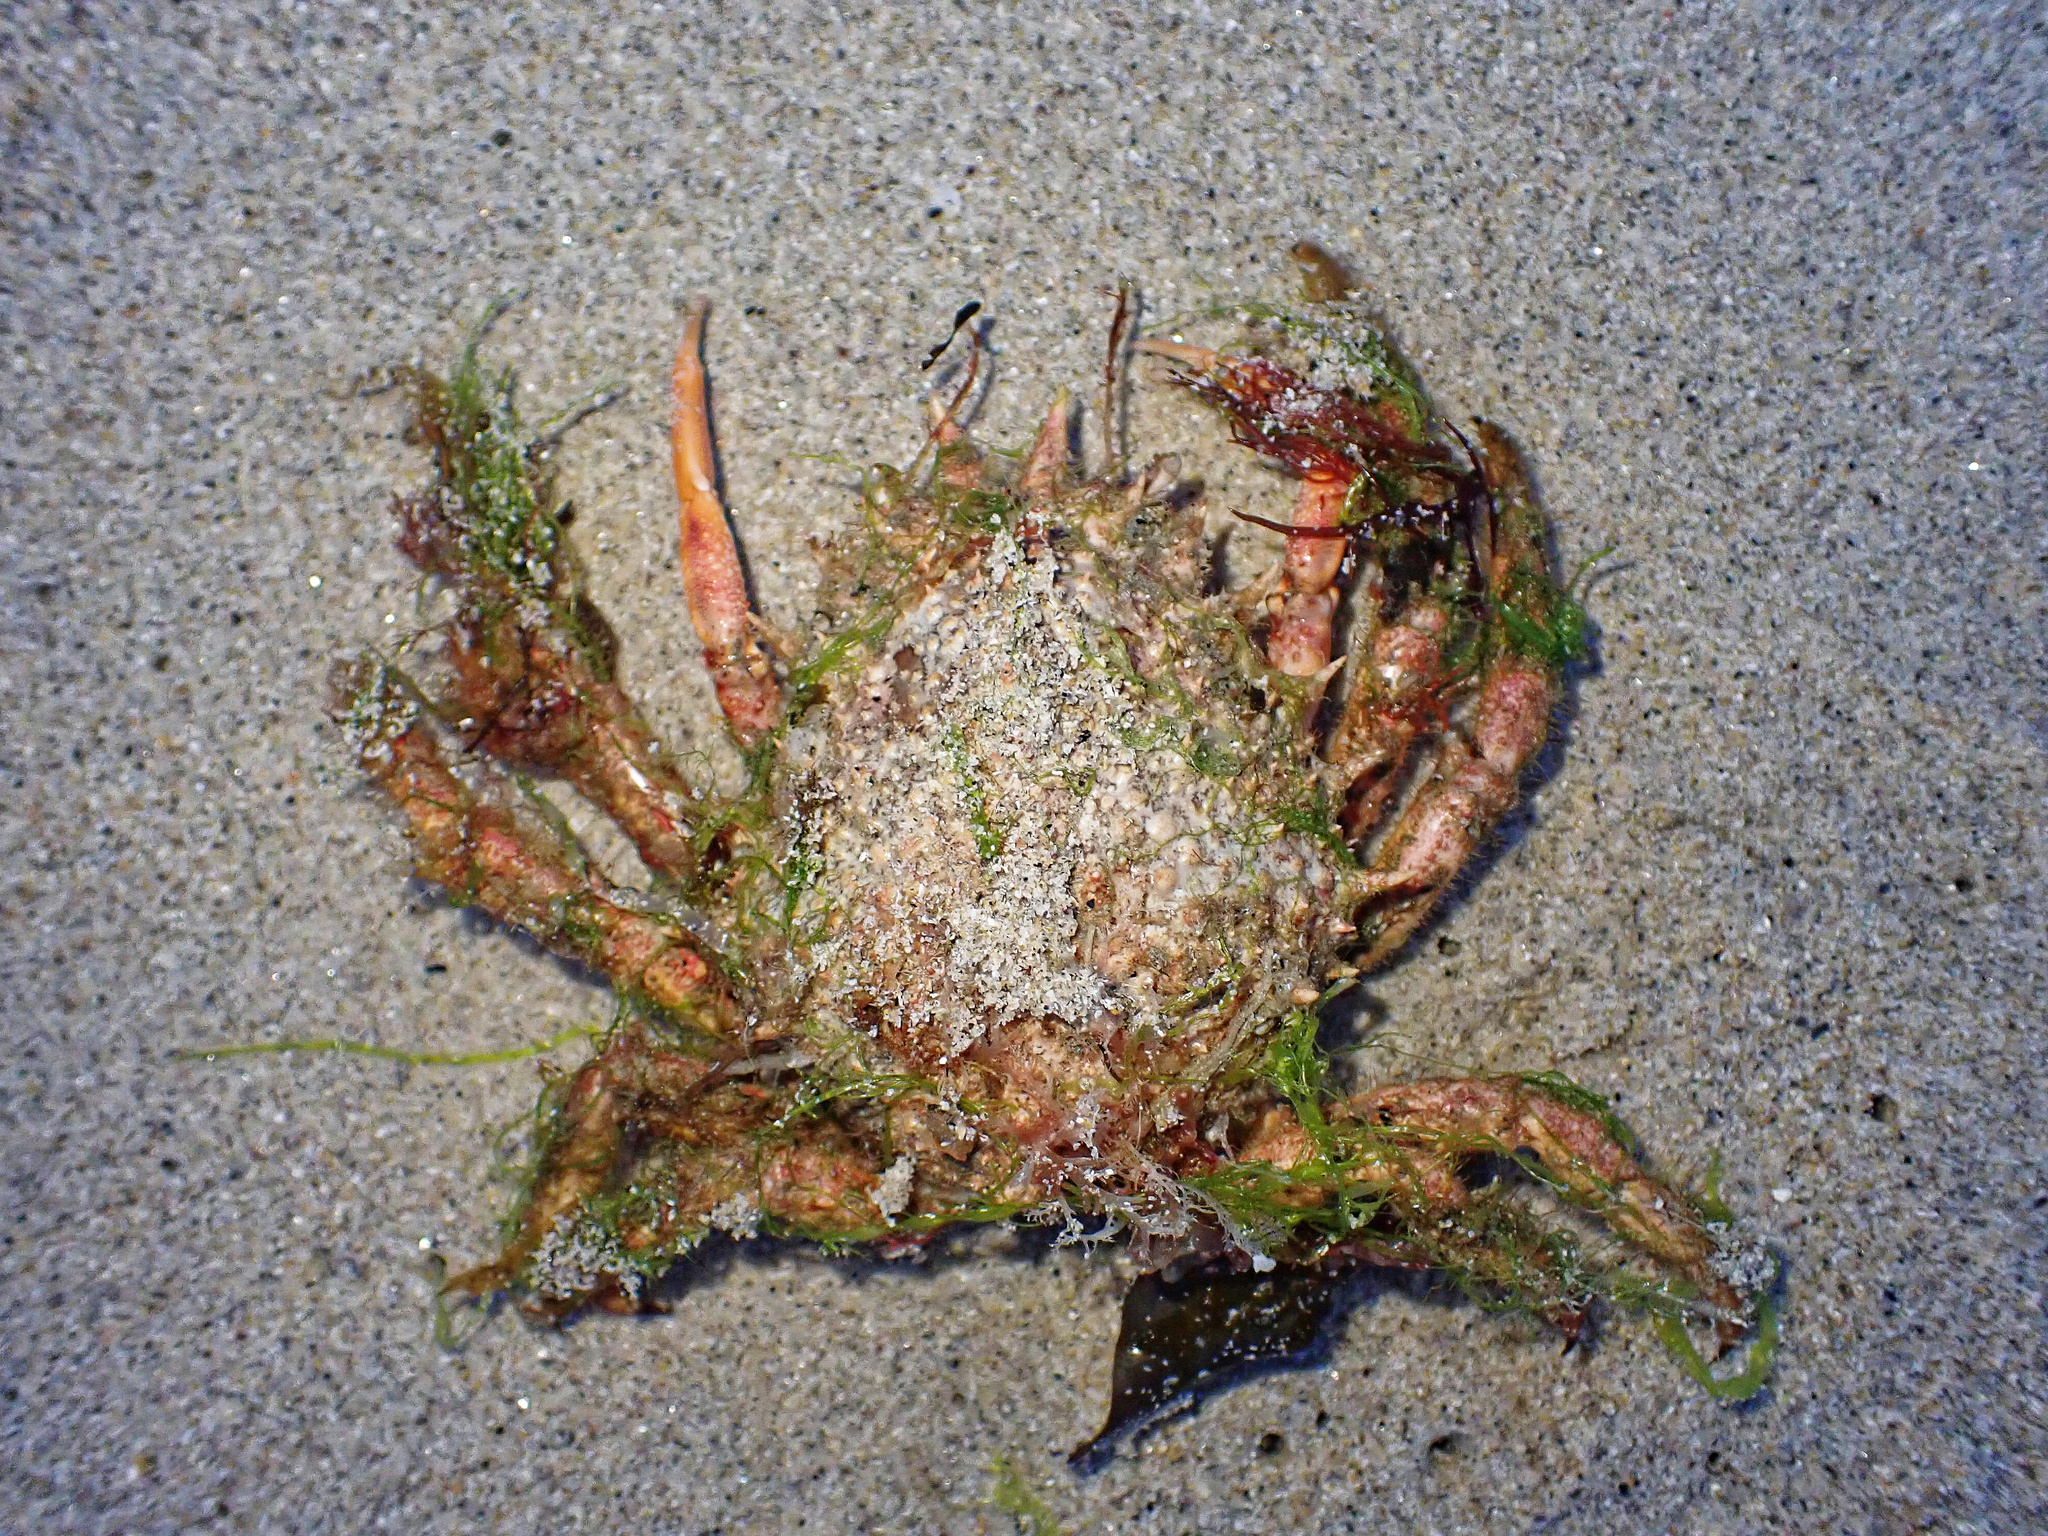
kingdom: Animalia
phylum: Arthropoda
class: Malacostraca
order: Decapoda
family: Majidae
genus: Maja
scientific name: Maja brachydactyla
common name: Common spider crab
